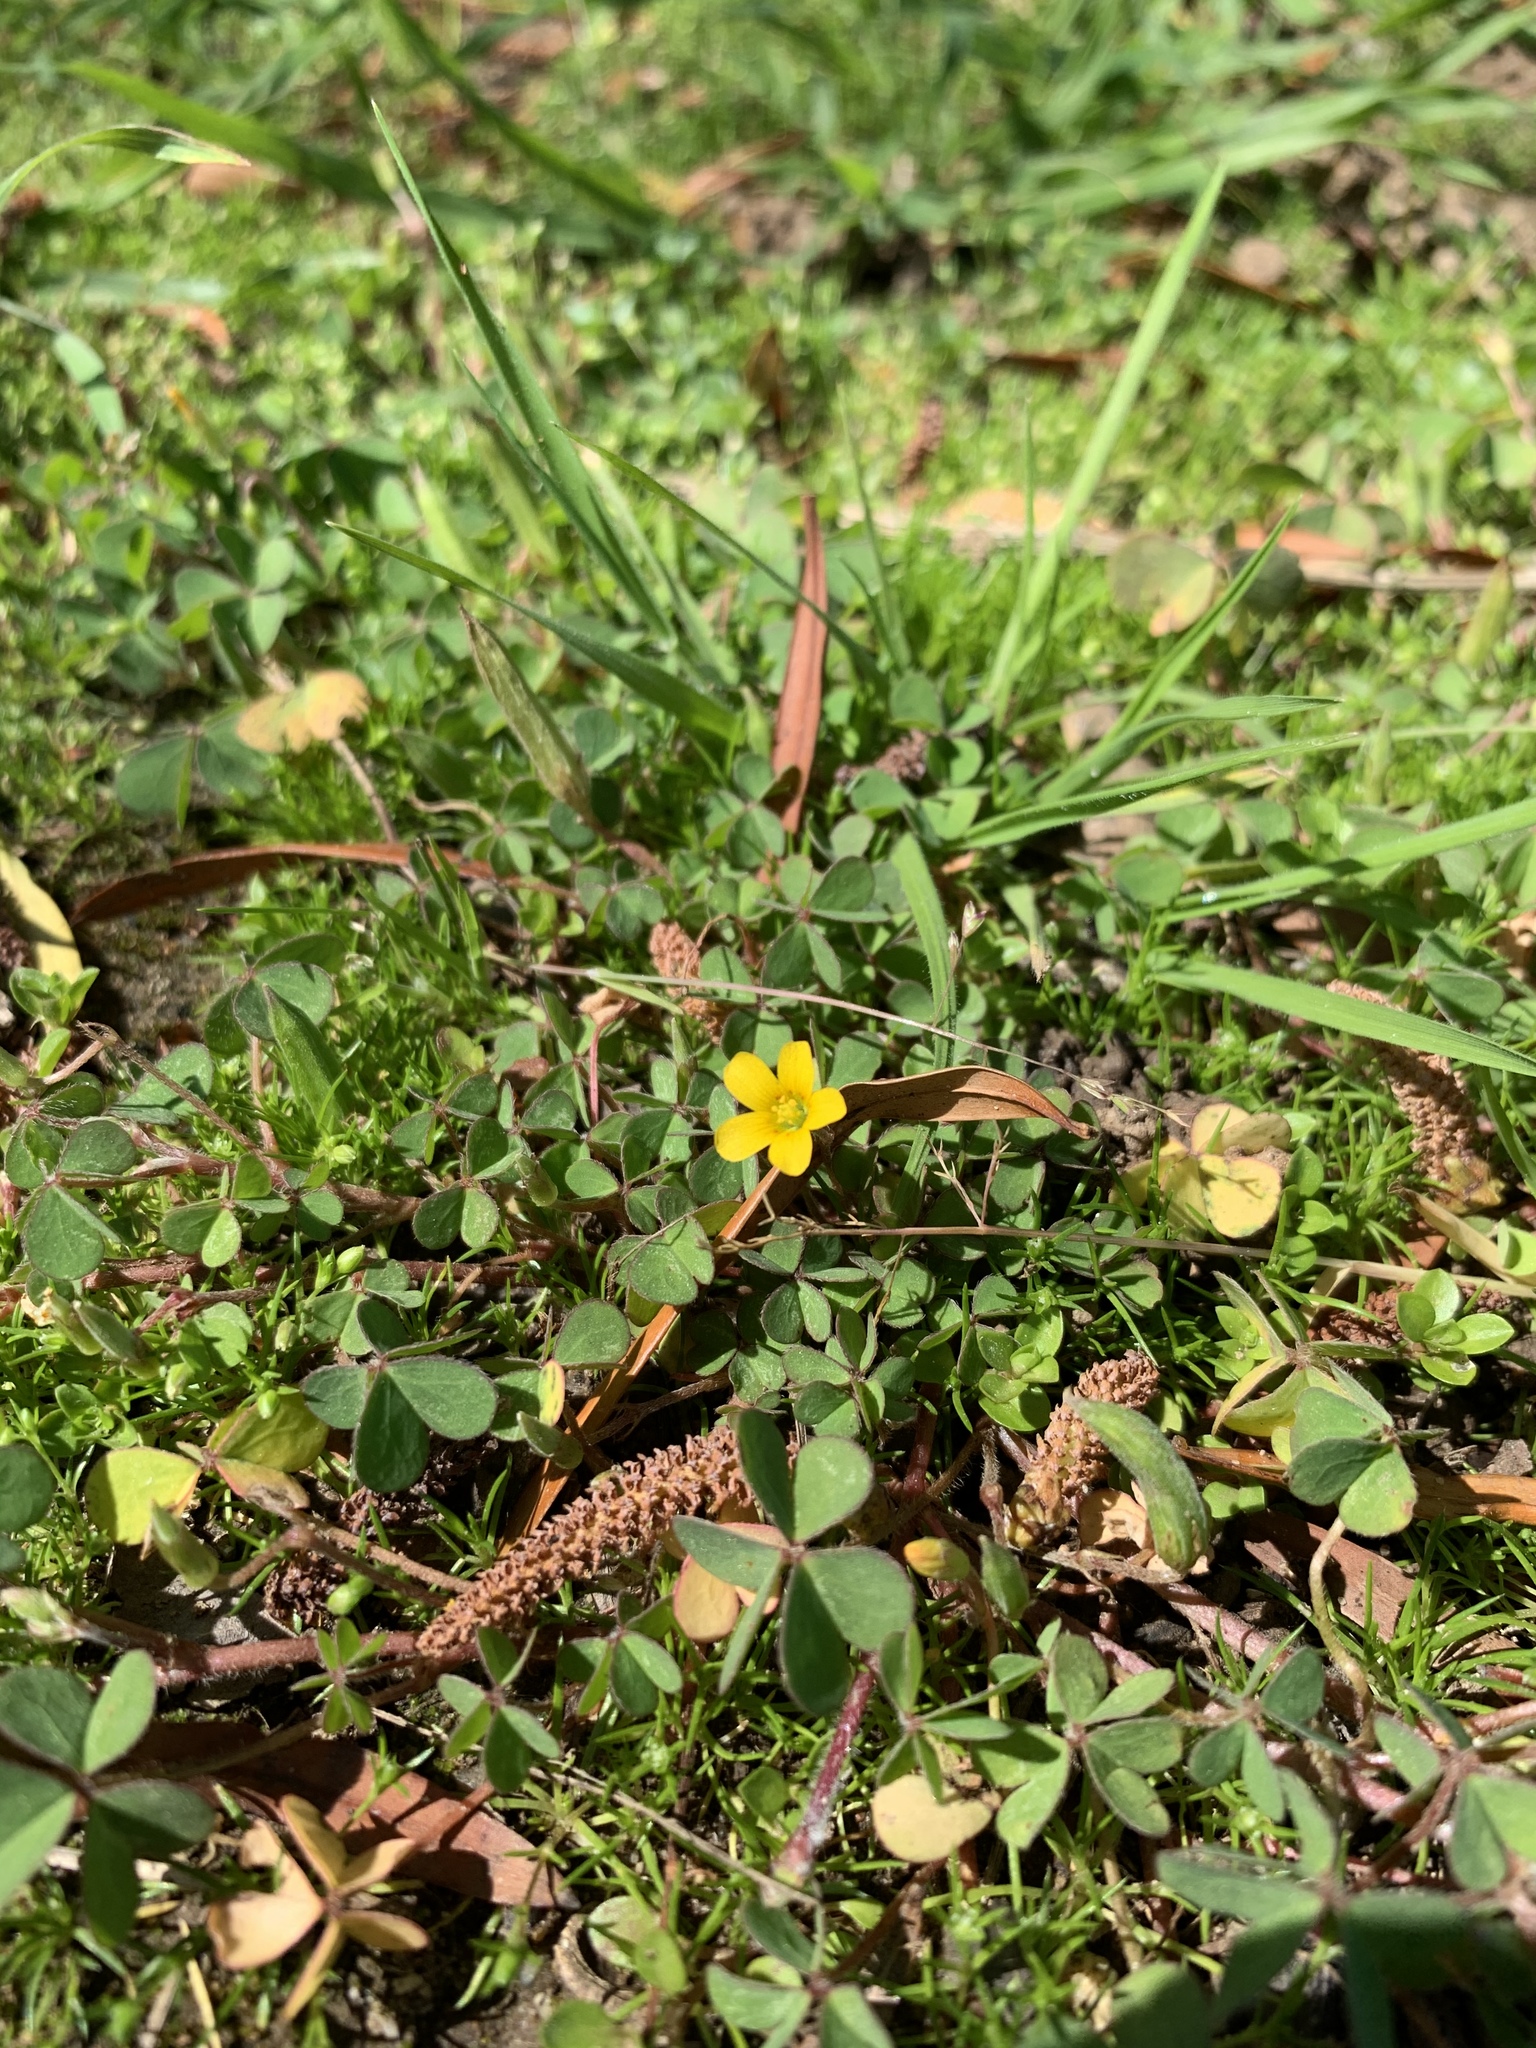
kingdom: Plantae
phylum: Tracheophyta
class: Magnoliopsida
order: Oxalidales
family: Oxalidaceae
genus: Oxalis
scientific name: Oxalis corniculata
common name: Procumbent yellow-sorrel
